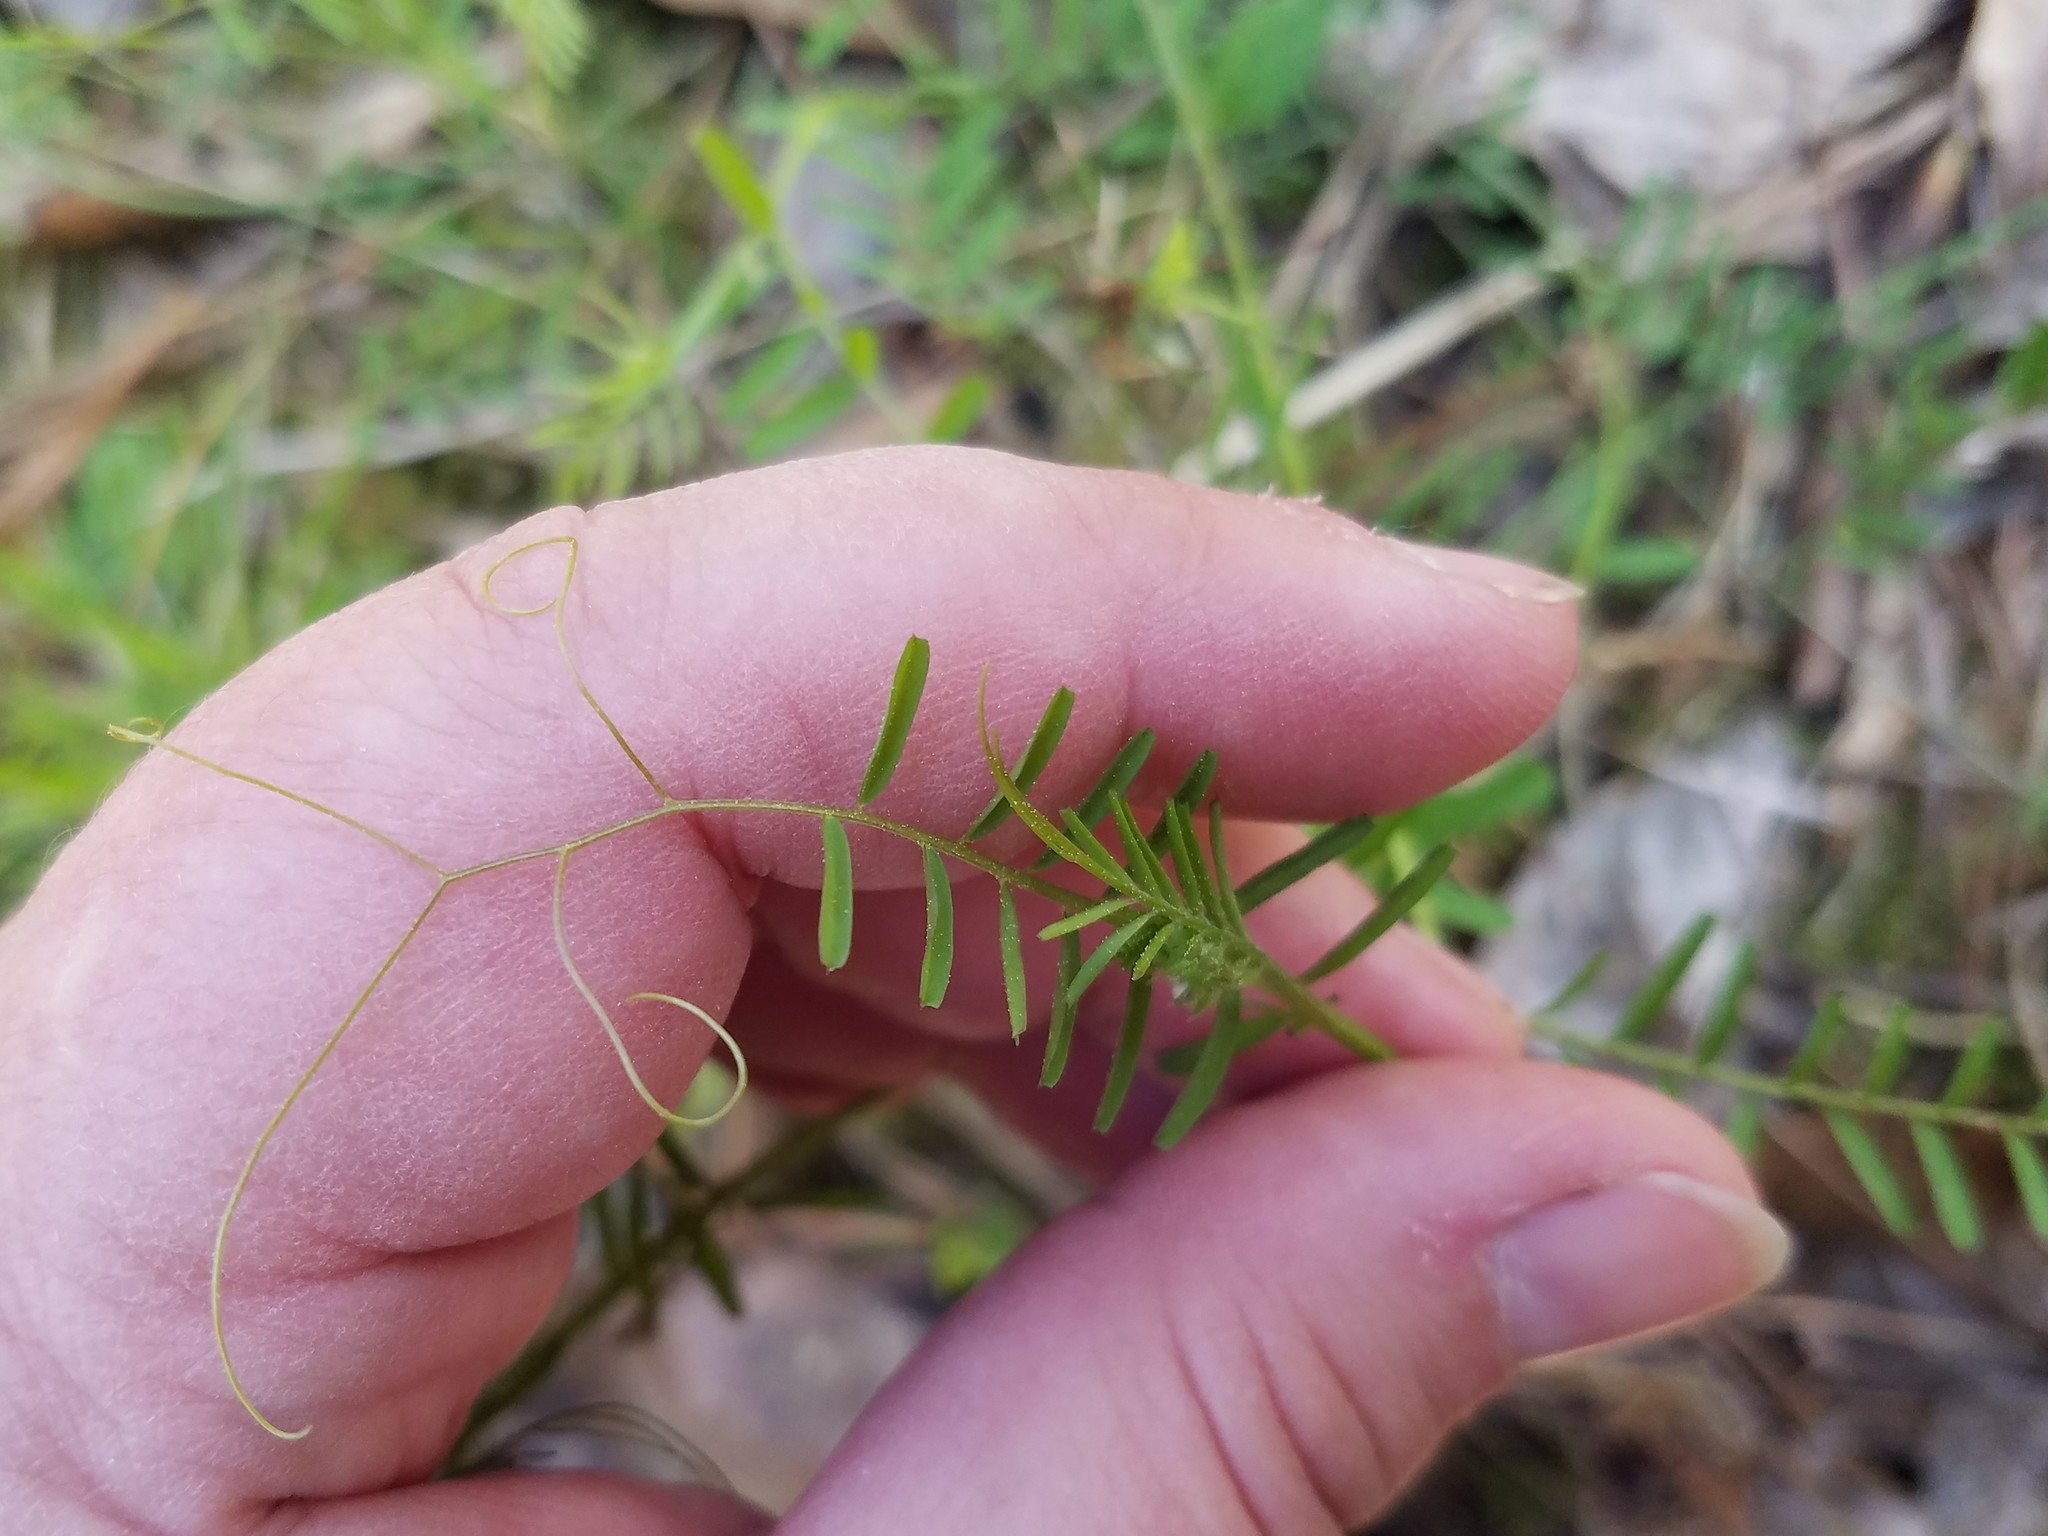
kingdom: Plantae
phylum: Tracheophyta
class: Magnoliopsida
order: Fabales
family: Fabaceae
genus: Vicia
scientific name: Vicia hirsuta
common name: Tiny vetch
